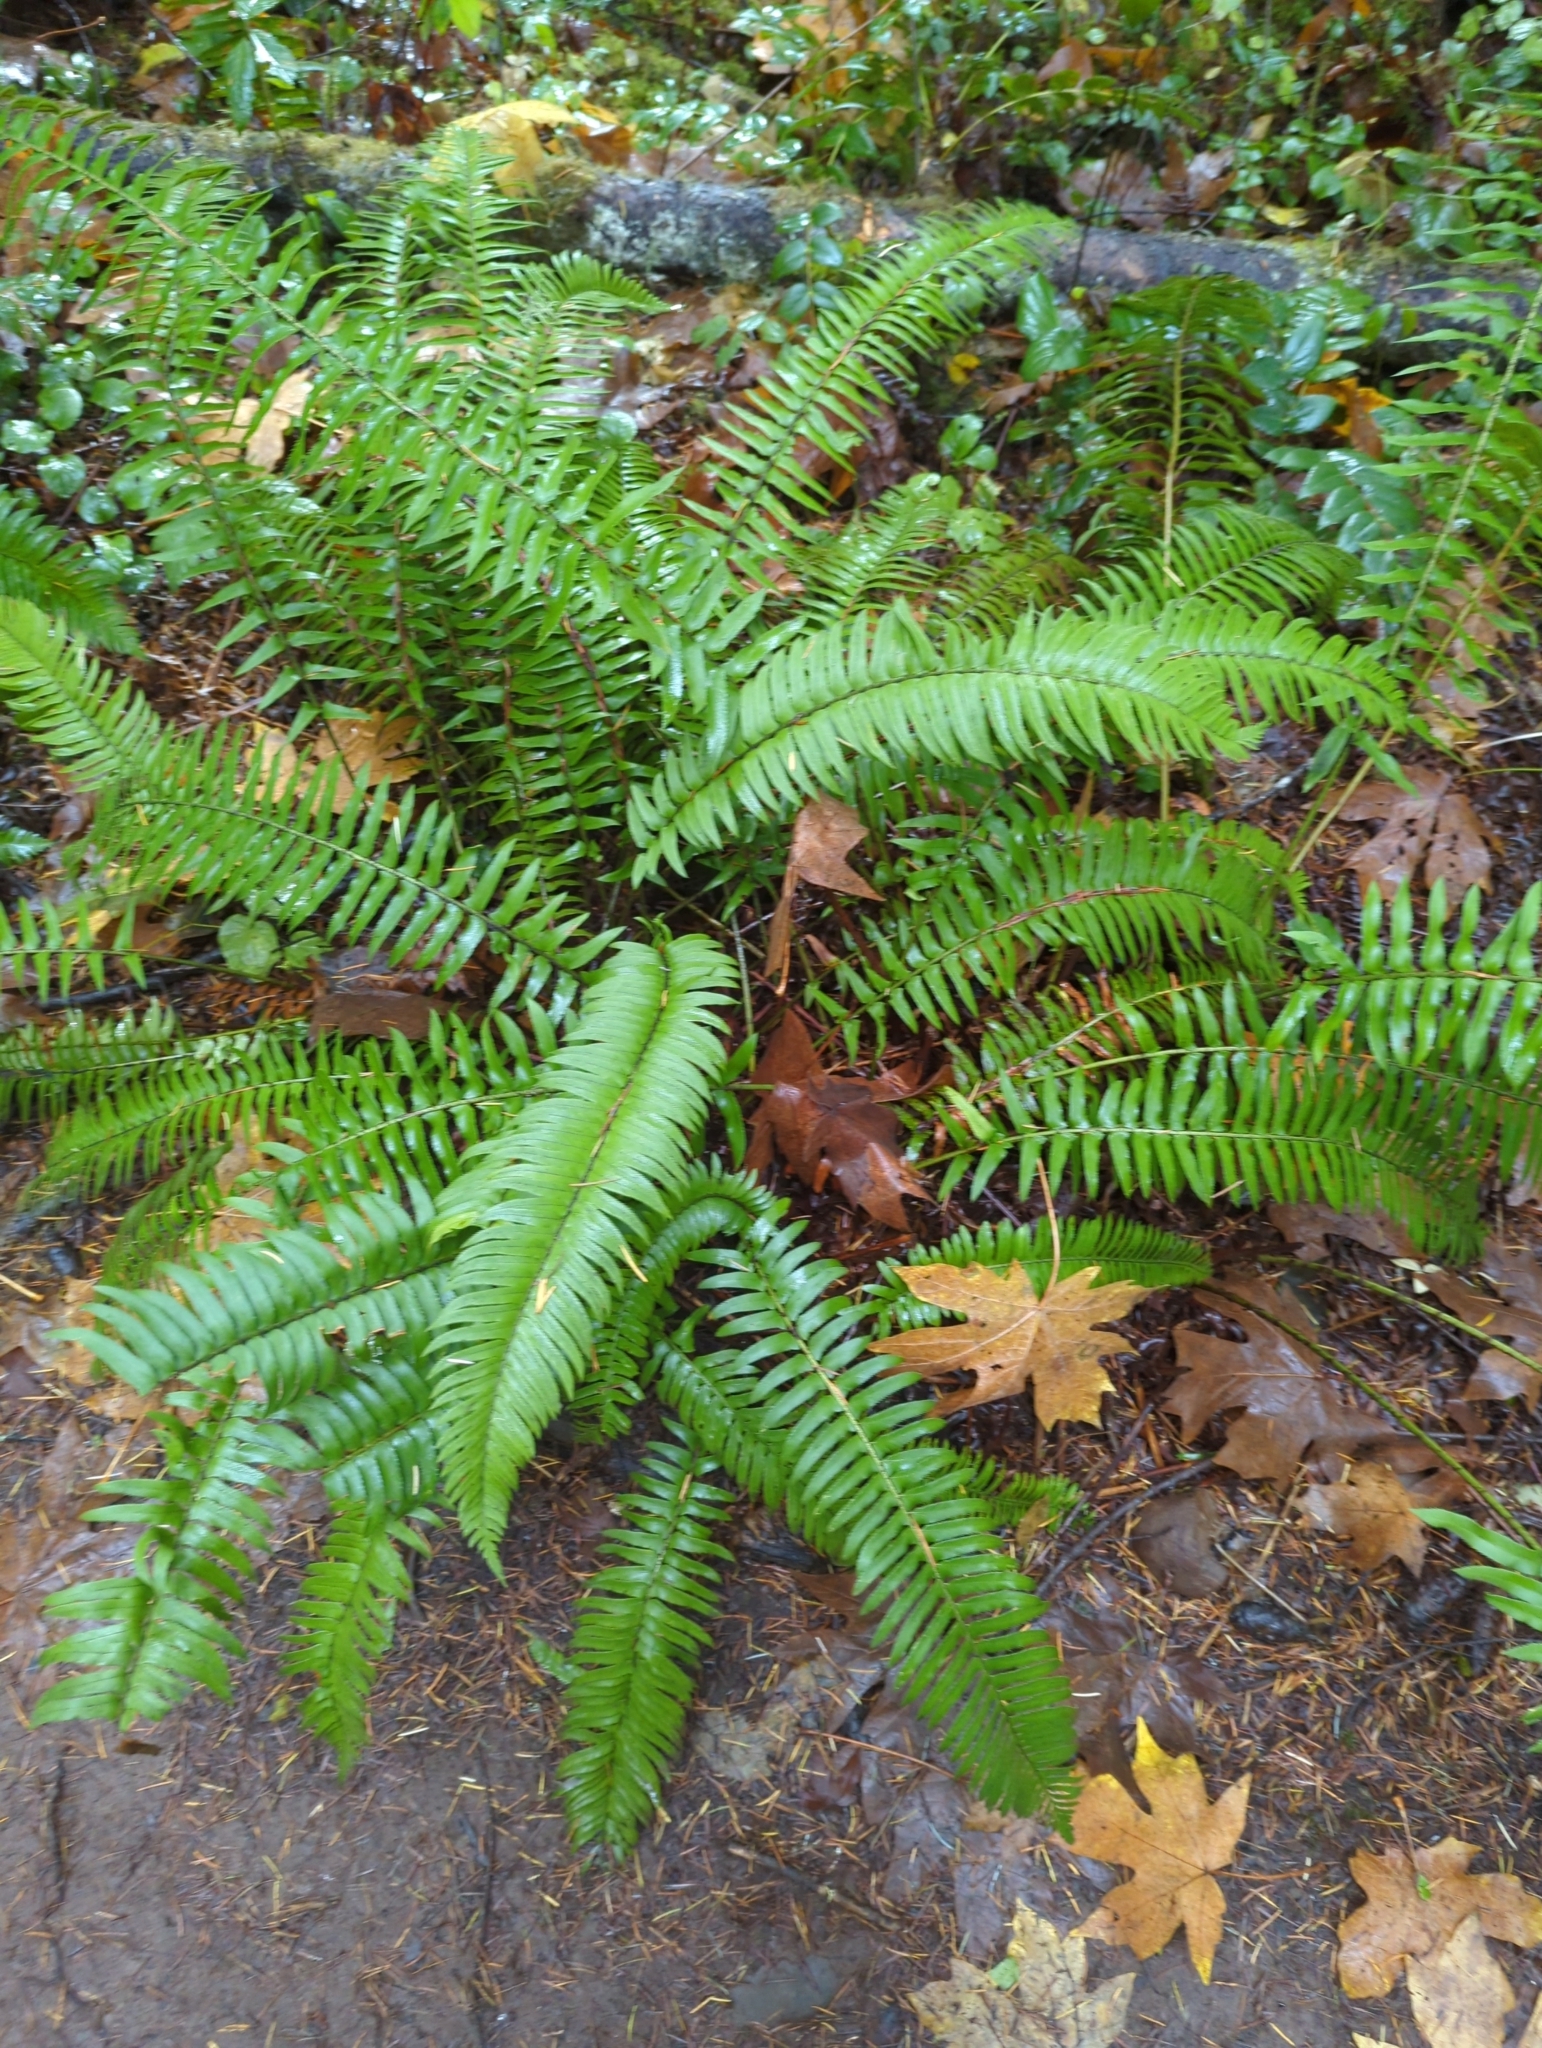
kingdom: Plantae
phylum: Tracheophyta
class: Polypodiopsida
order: Polypodiales
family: Dryopteridaceae
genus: Polystichum
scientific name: Polystichum munitum
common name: Western sword-fern
